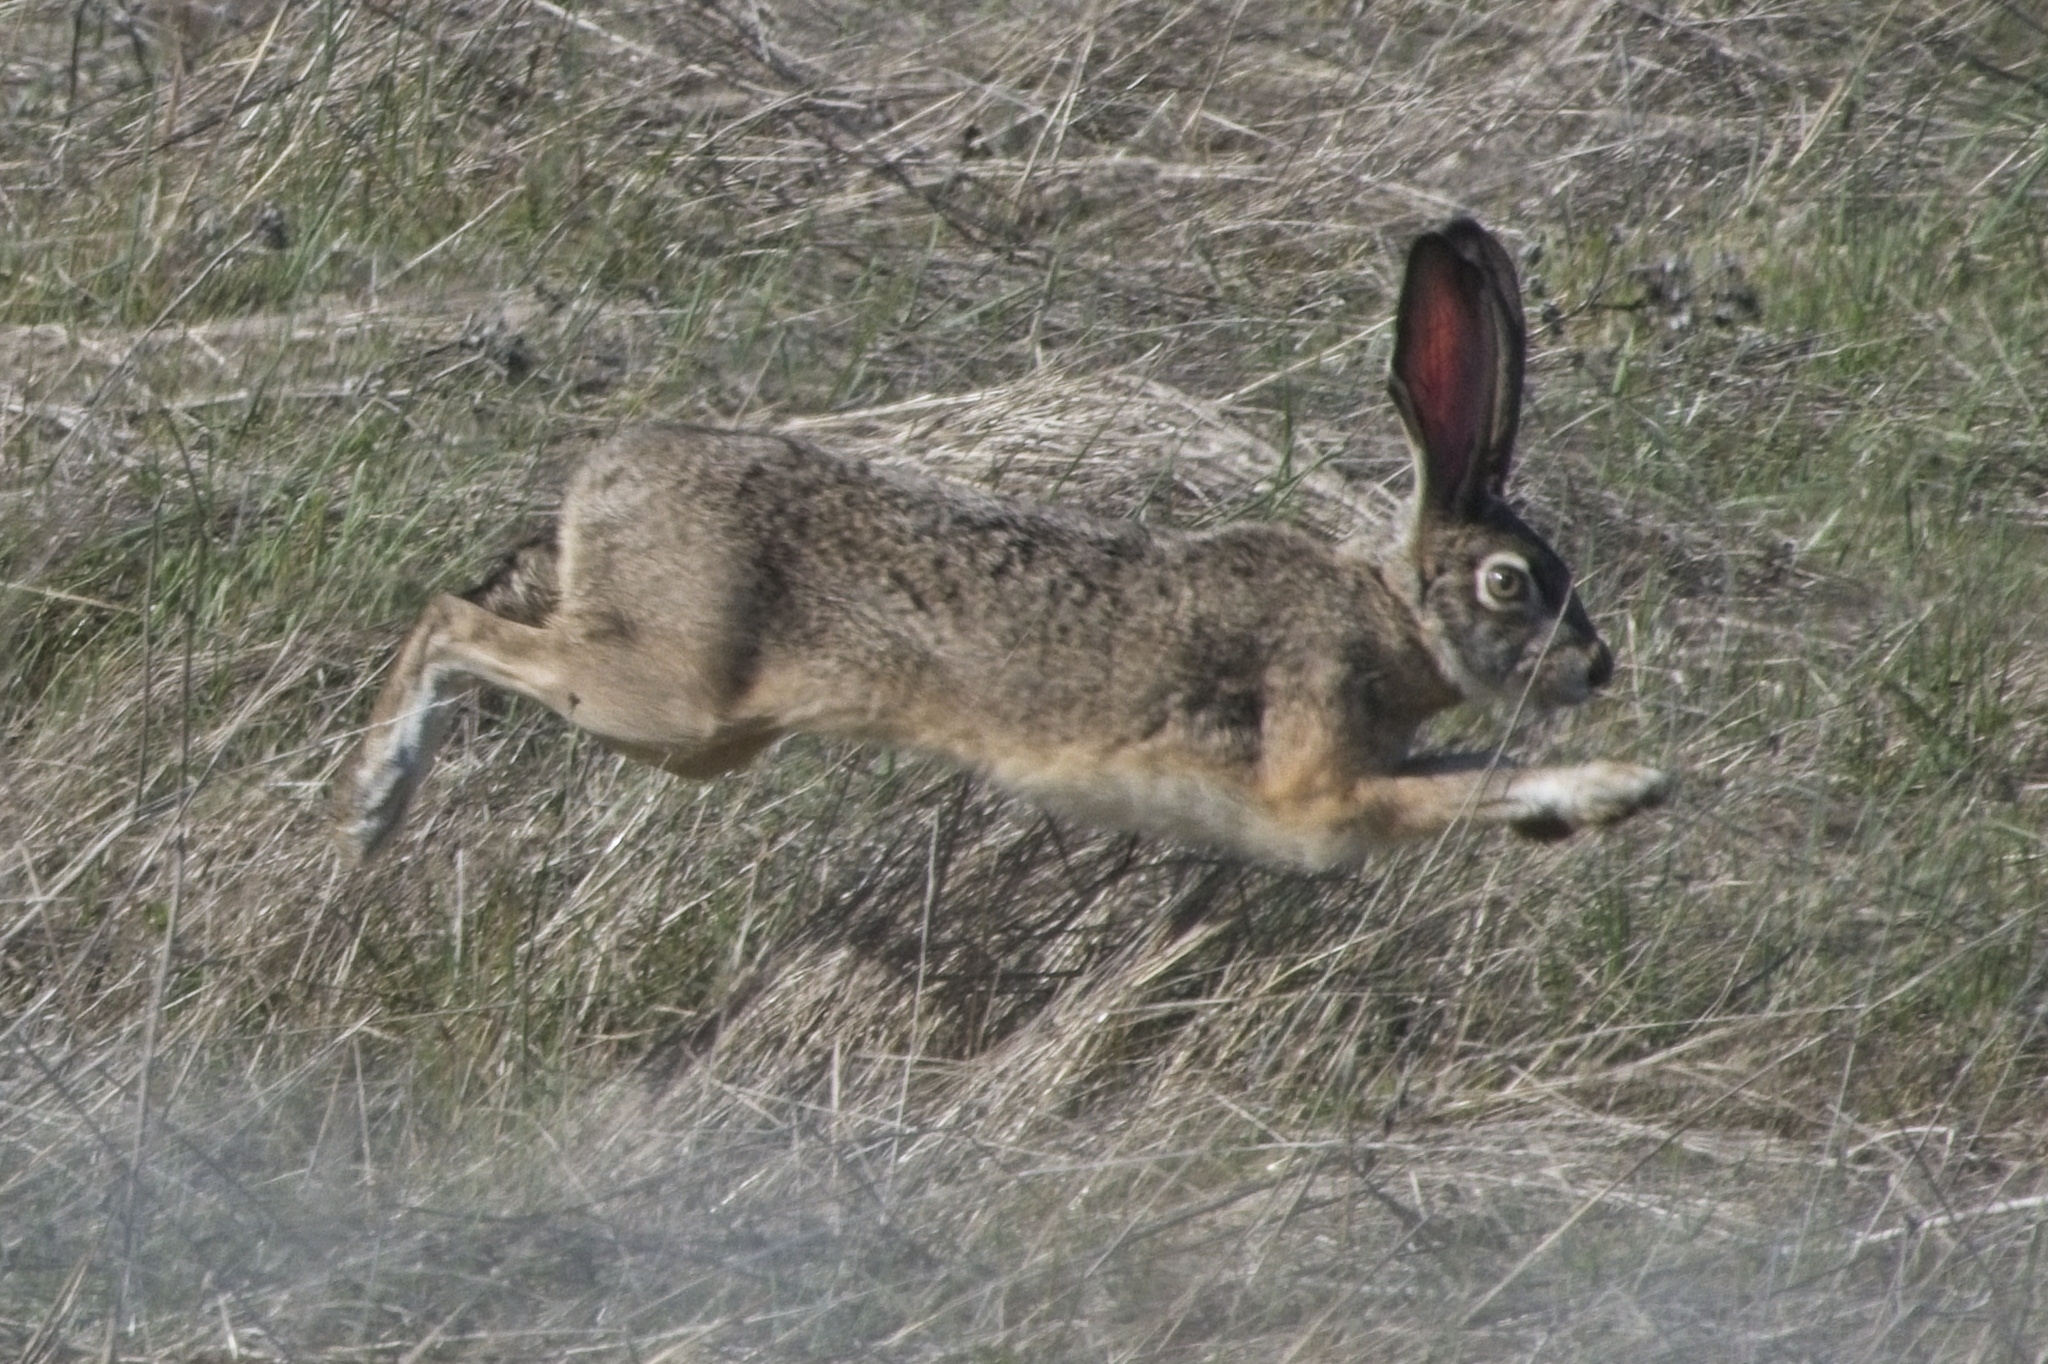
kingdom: Animalia
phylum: Chordata
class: Mammalia
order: Lagomorpha
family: Leporidae
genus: Lepus
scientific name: Lepus californicus
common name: Black-tailed jackrabbit
